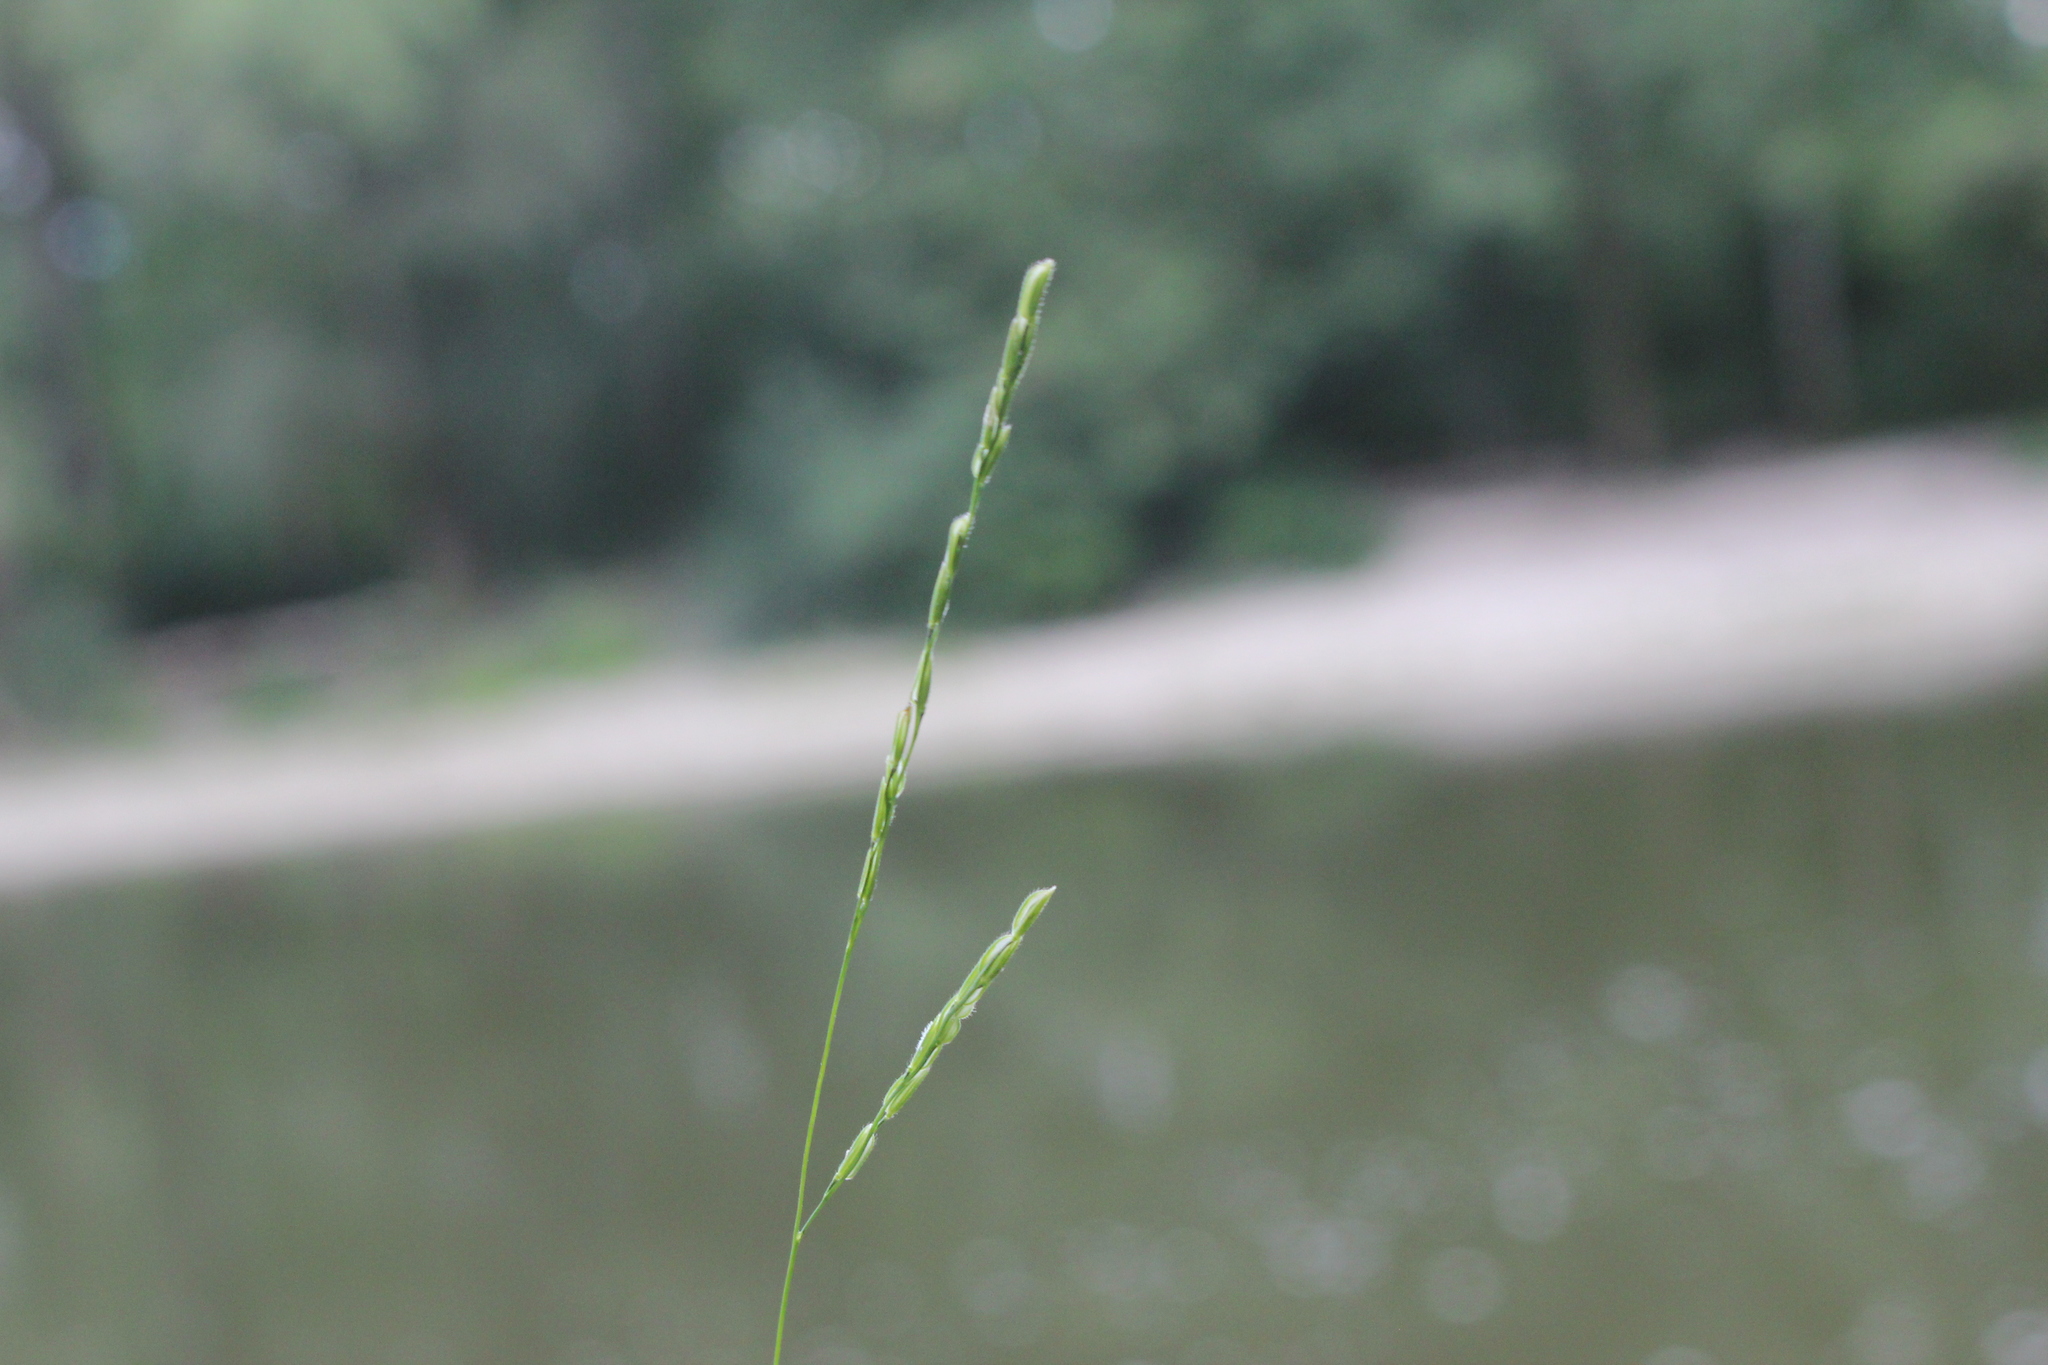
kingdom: Plantae
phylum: Tracheophyta
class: Liliopsida
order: Poales
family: Poaceae
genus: Leersia
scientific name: Leersia virginica
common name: White cutgrass
